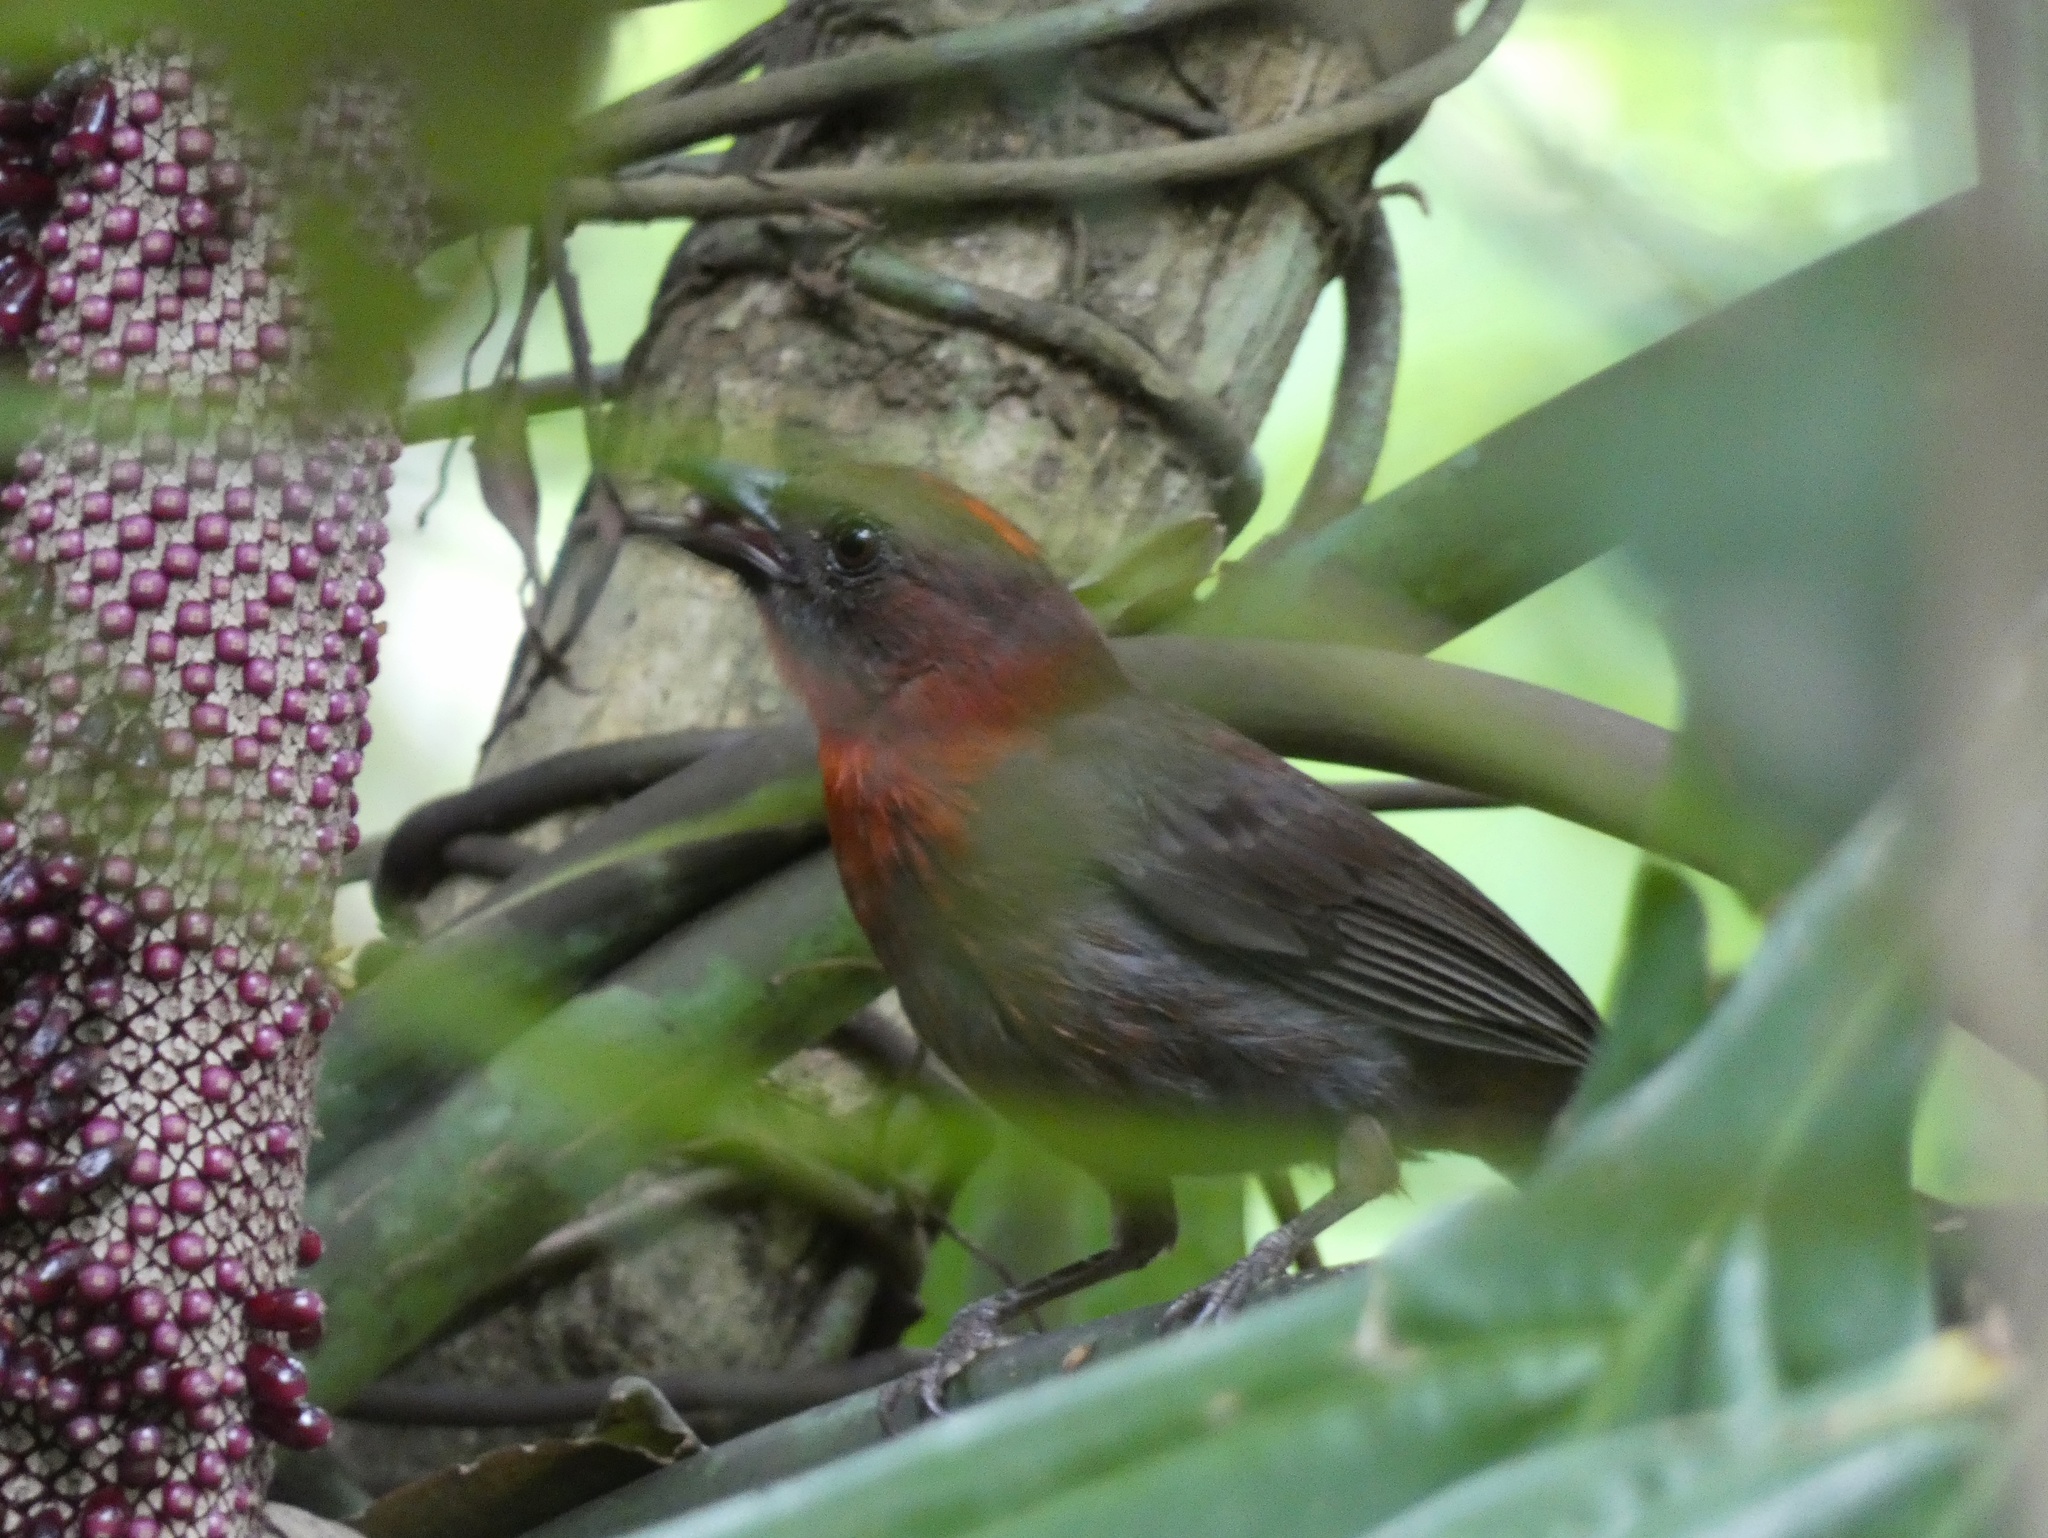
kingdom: Animalia
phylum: Chordata
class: Aves
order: Passeriformes
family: Cardinalidae
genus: Habia
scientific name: Habia fuscicauda
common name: Red-throated ant-tanager
